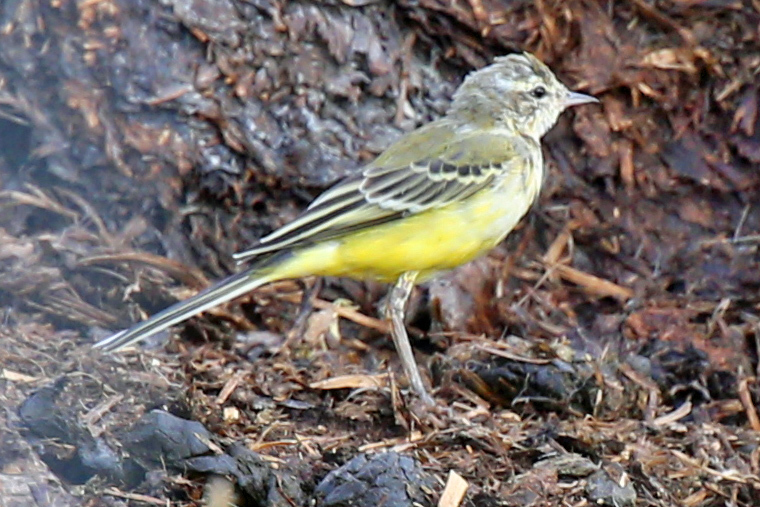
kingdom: Animalia
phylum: Chordata
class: Aves
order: Passeriformes
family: Motacillidae
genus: Motacilla
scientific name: Motacilla flava
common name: Western yellow wagtail
